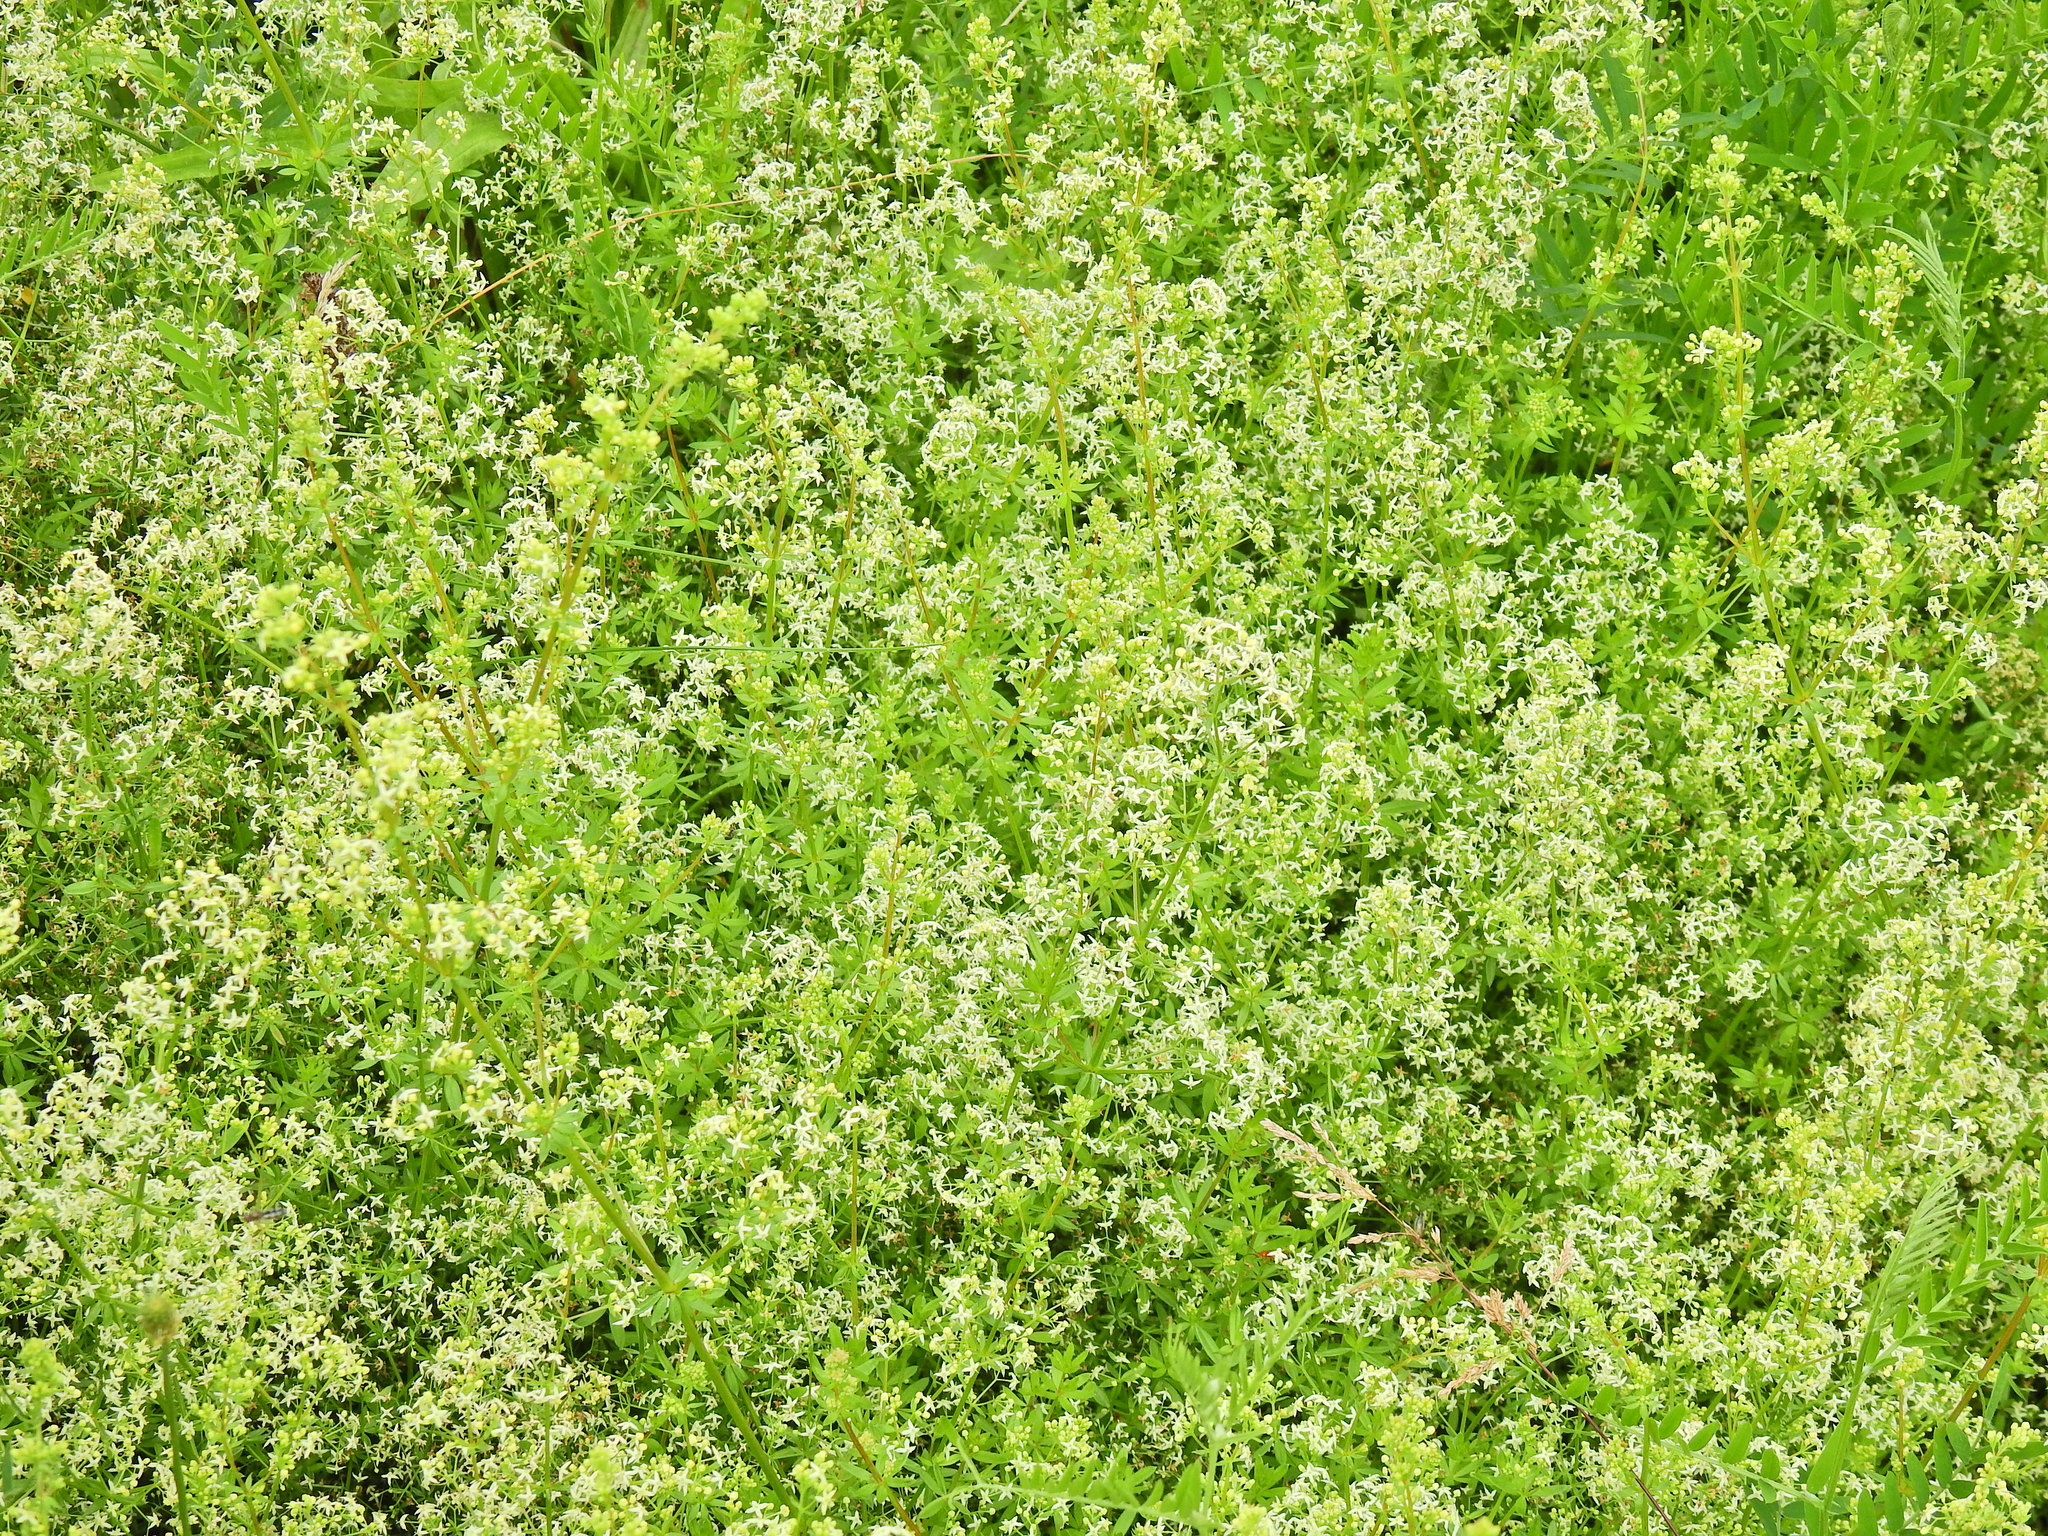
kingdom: Plantae
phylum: Tracheophyta
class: Magnoliopsida
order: Gentianales
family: Rubiaceae
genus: Galium
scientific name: Galium mollugo
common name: Hedge bedstraw
